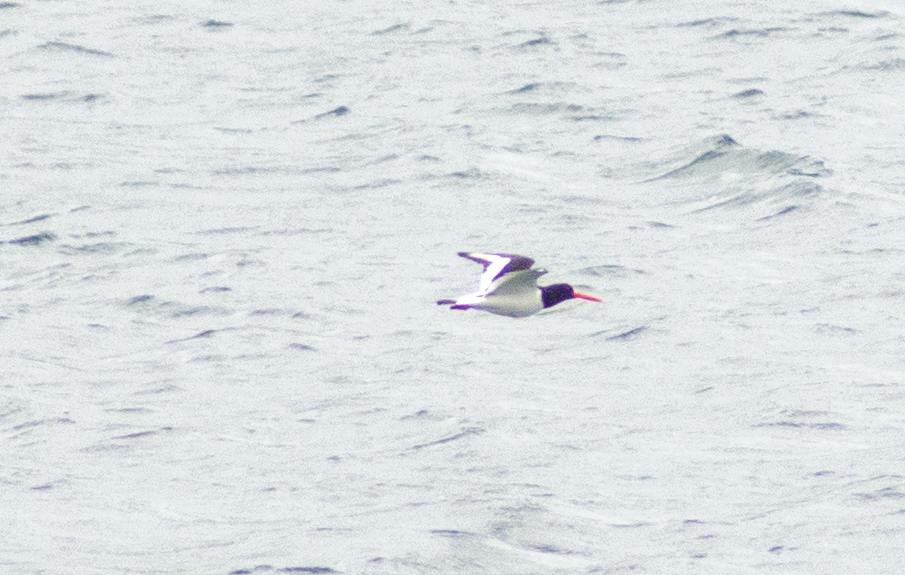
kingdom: Animalia
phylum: Chordata
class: Aves
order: Charadriiformes
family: Haematopodidae
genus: Haematopus
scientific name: Haematopus ostralegus
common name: Eurasian oystercatcher
